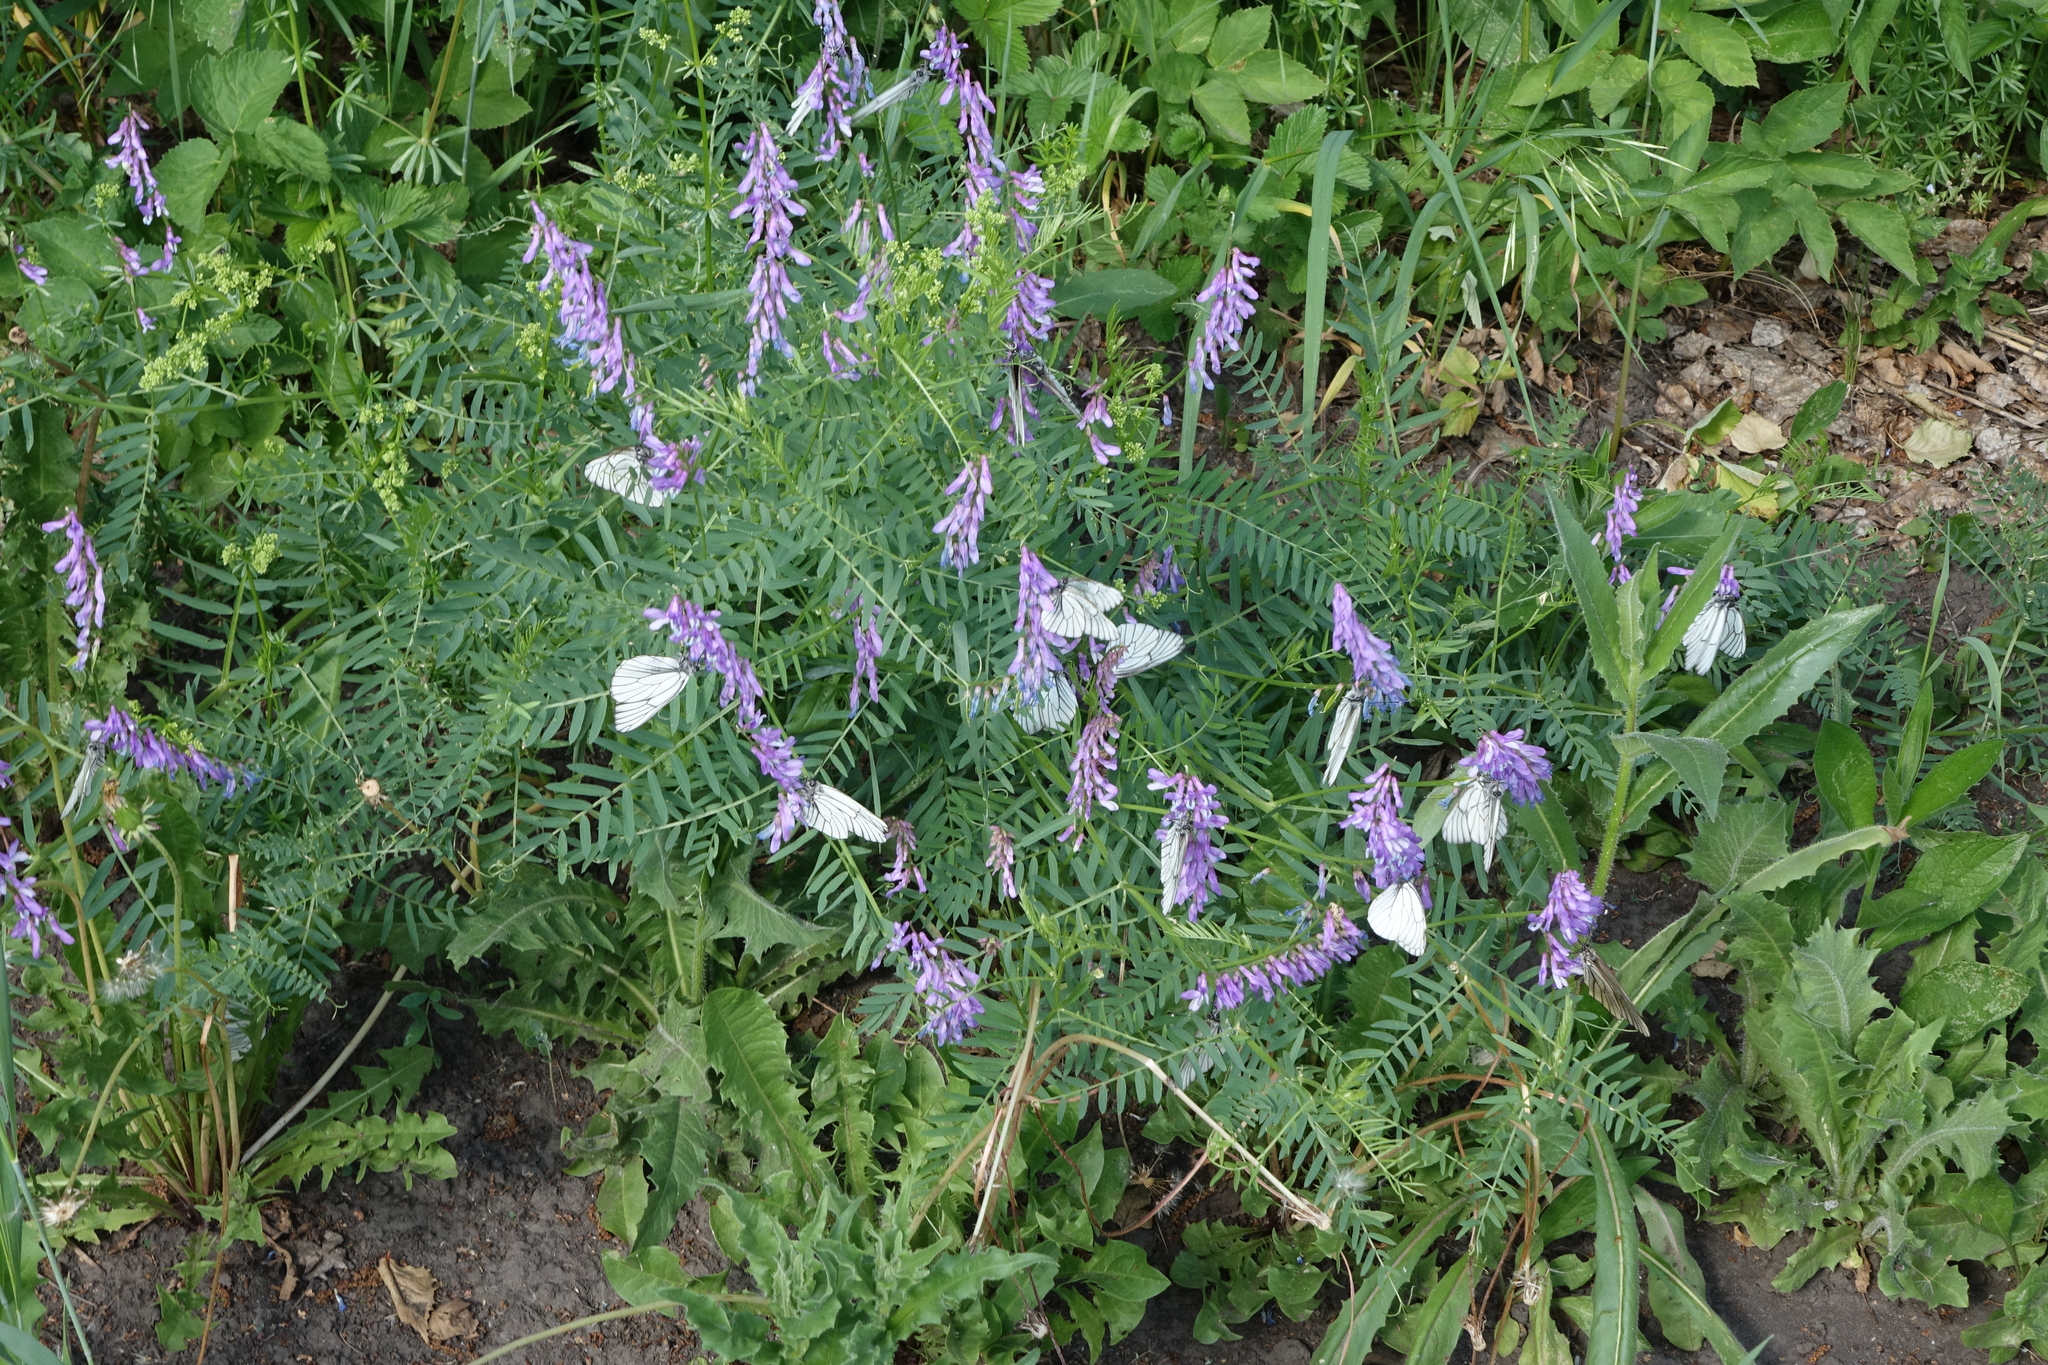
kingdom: Plantae
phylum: Tracheophyta
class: Magnoliopsida
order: Fabales
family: Fabaceae
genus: Vicia
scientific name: Vicia tenuifolia
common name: Fine-leaved vetch
